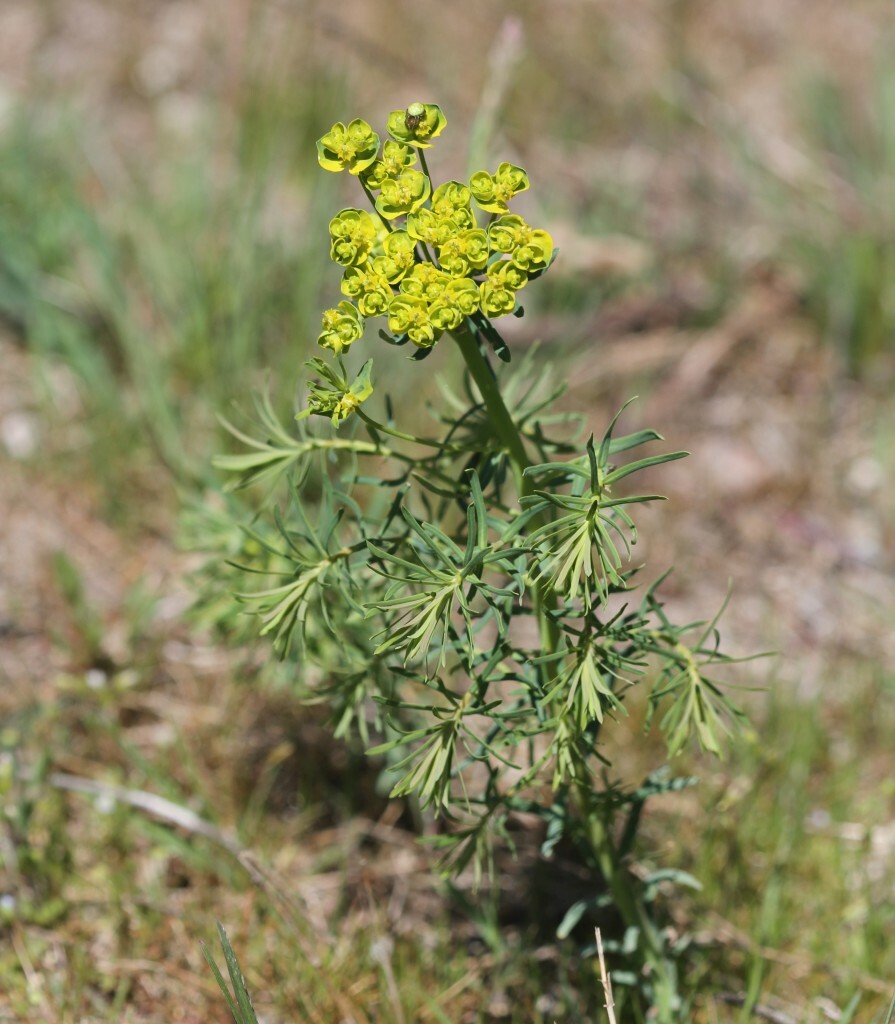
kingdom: Plantae
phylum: Tracheophyta
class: Magnoliopsida
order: Malpighiales
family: Euphorbiaceae
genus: Euphorbia
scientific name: Euphorbia cyparissias
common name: Cypress spurge
